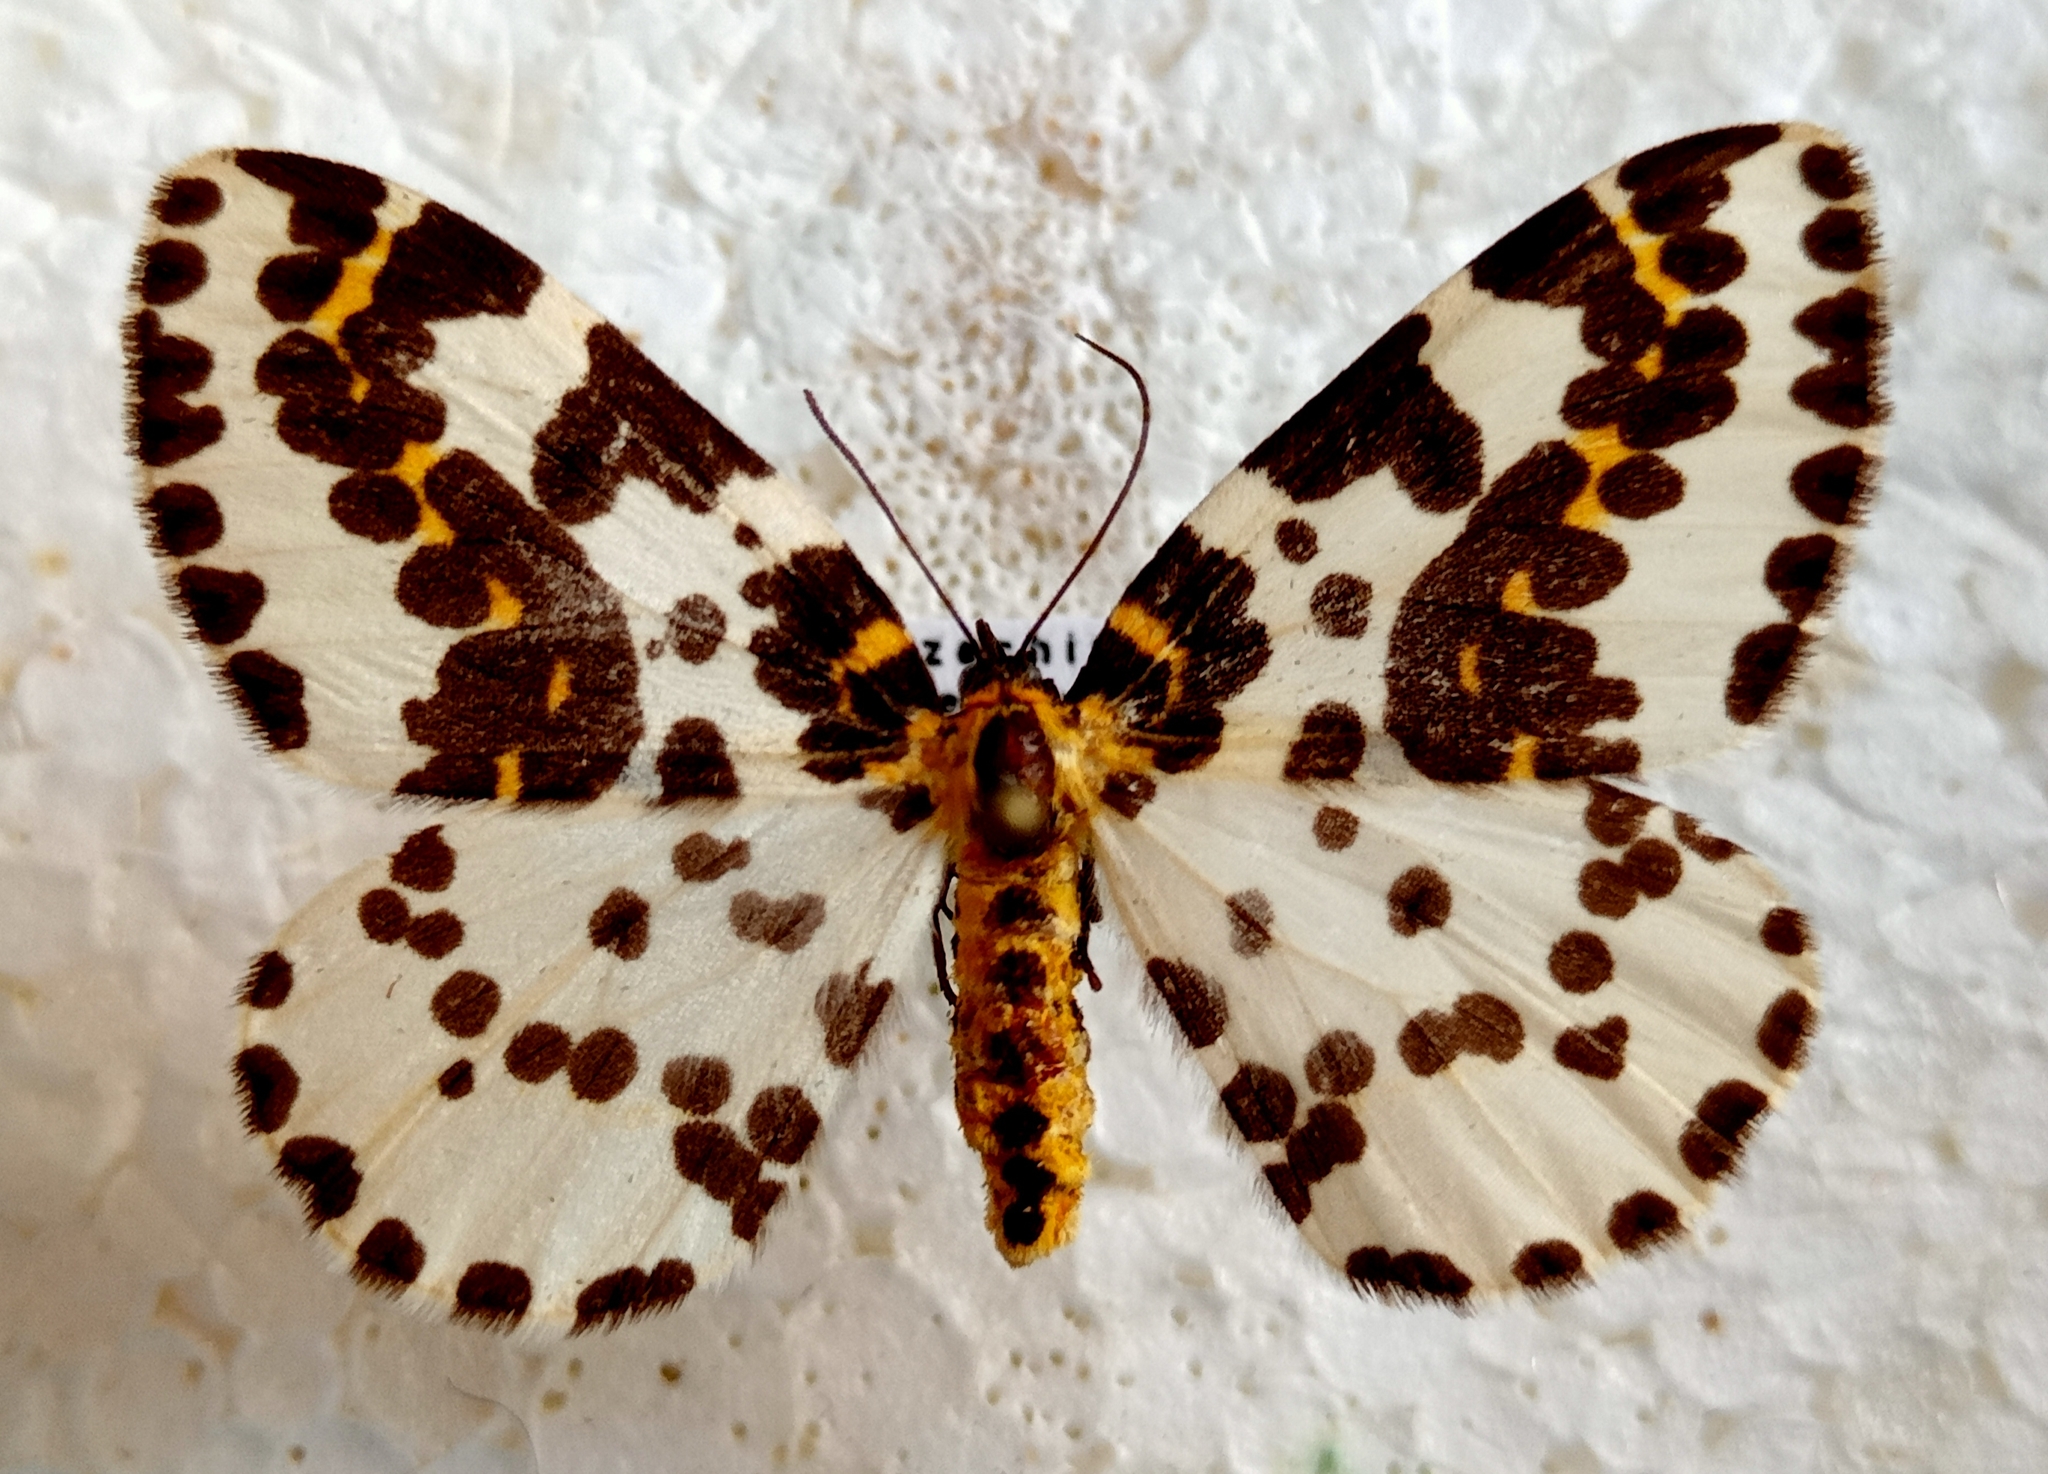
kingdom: Animalia
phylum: Arthropoda
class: Insecta
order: Lepidoptera
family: Geometridae
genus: Abraxas
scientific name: Abraxas grossulariata
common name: Magpie
